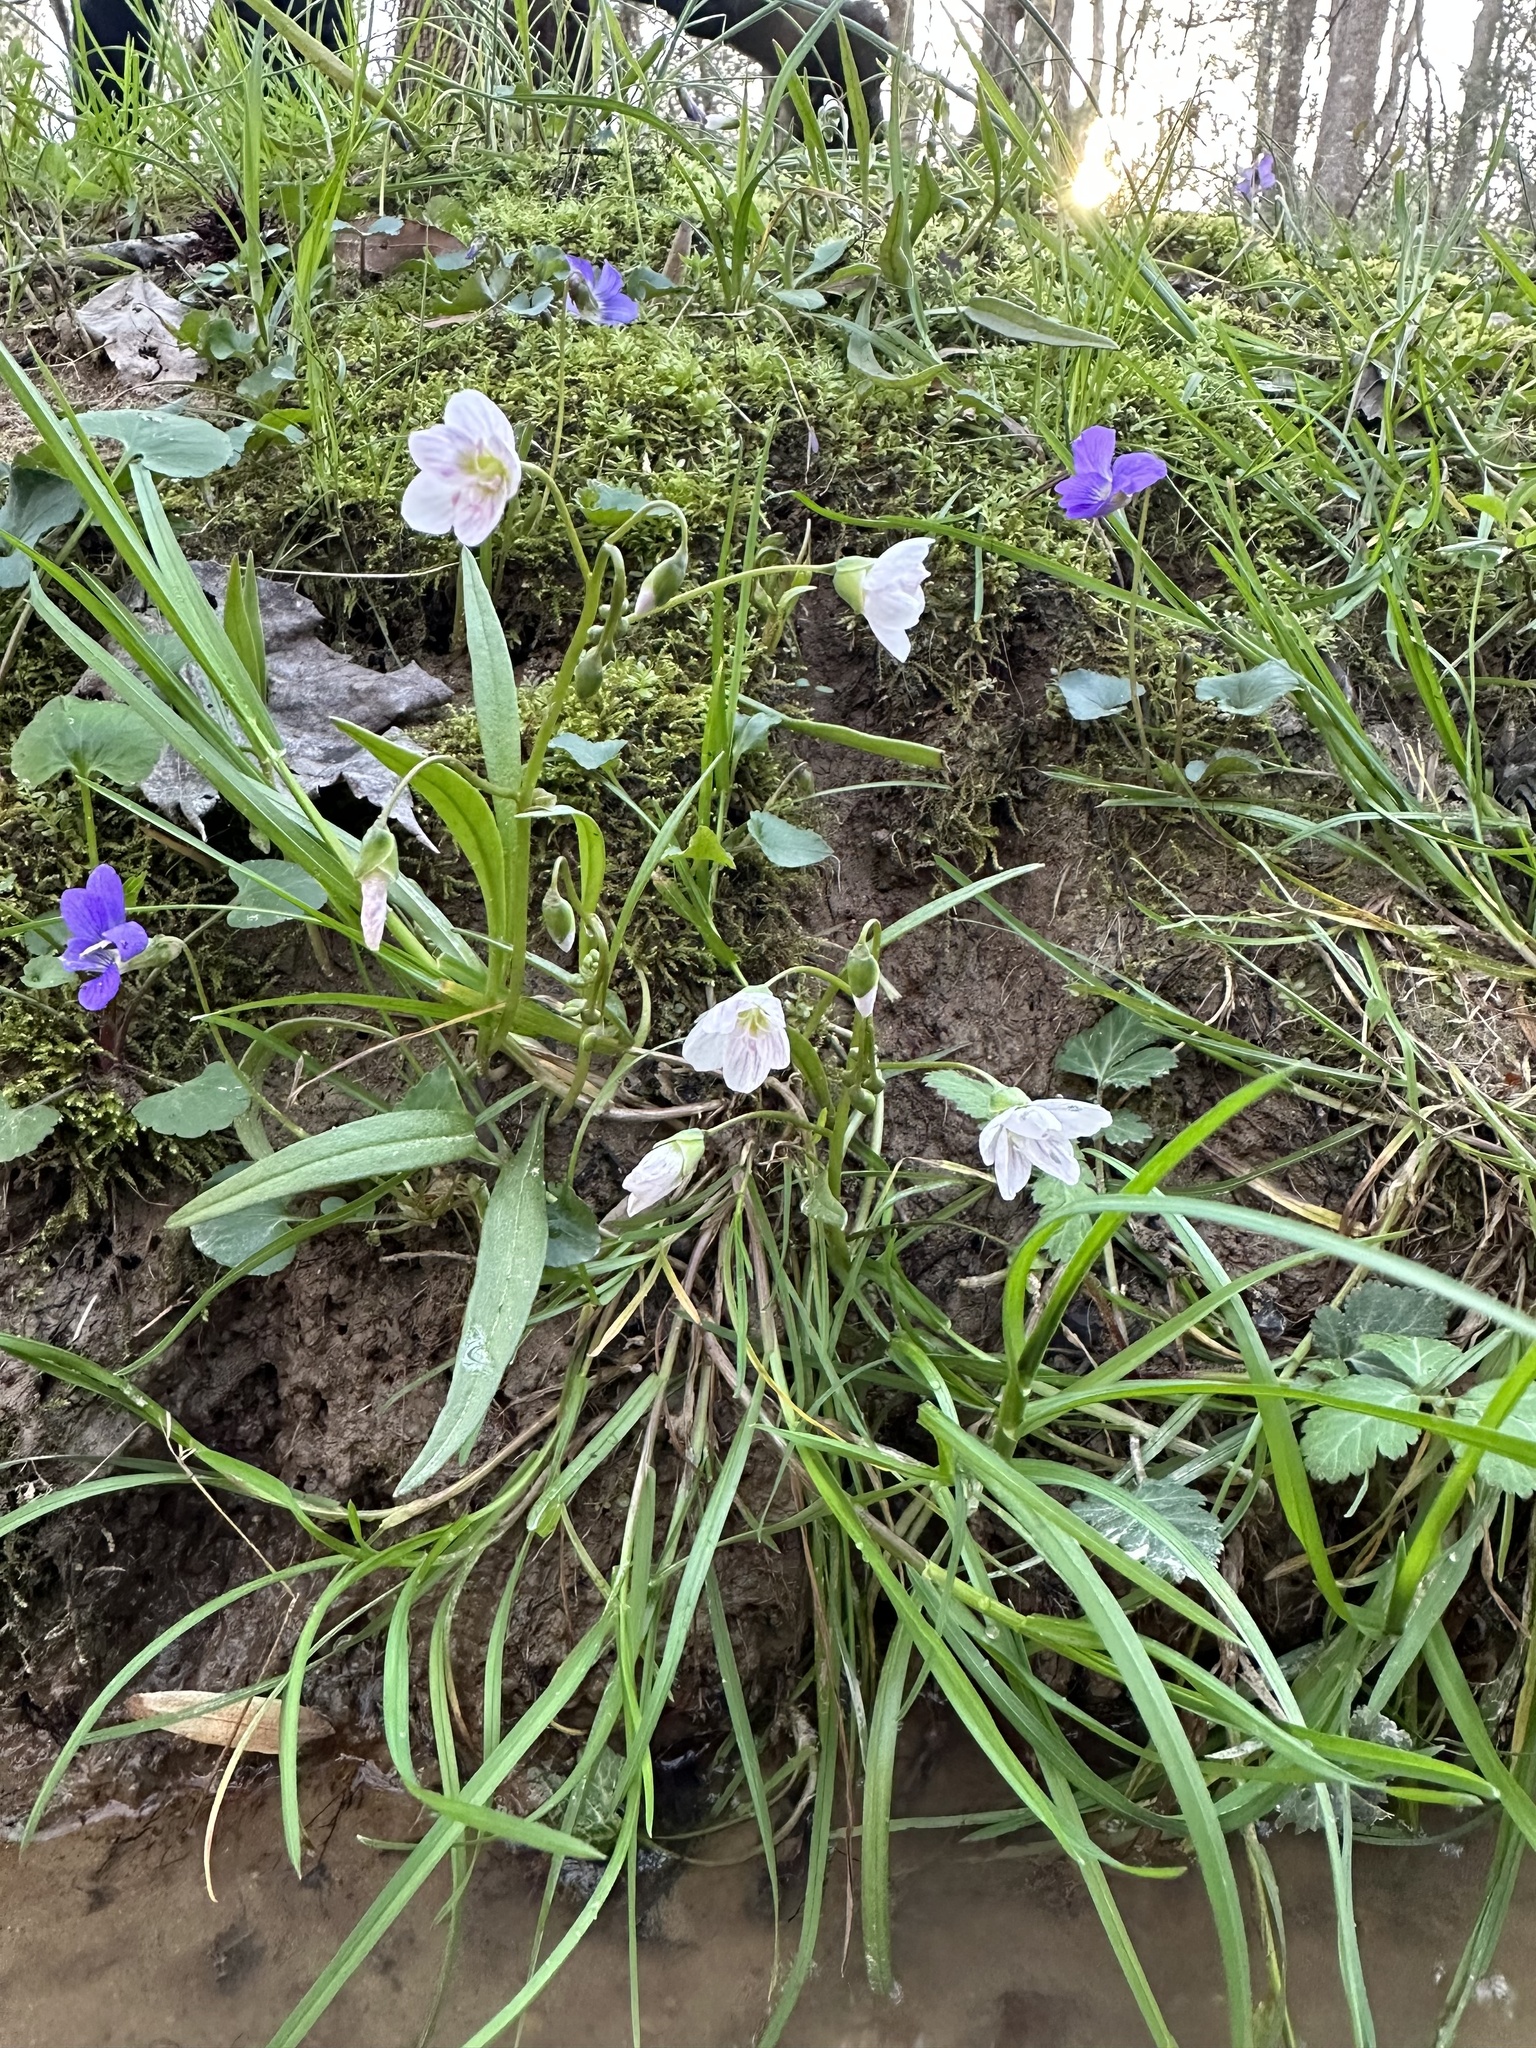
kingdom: Plantae
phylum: Tracheophyta
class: Magnoliopsida
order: Caryophyllales
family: Montiaceae
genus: Claytonia
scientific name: Claytonia virginica
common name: Virginia springbeauty
